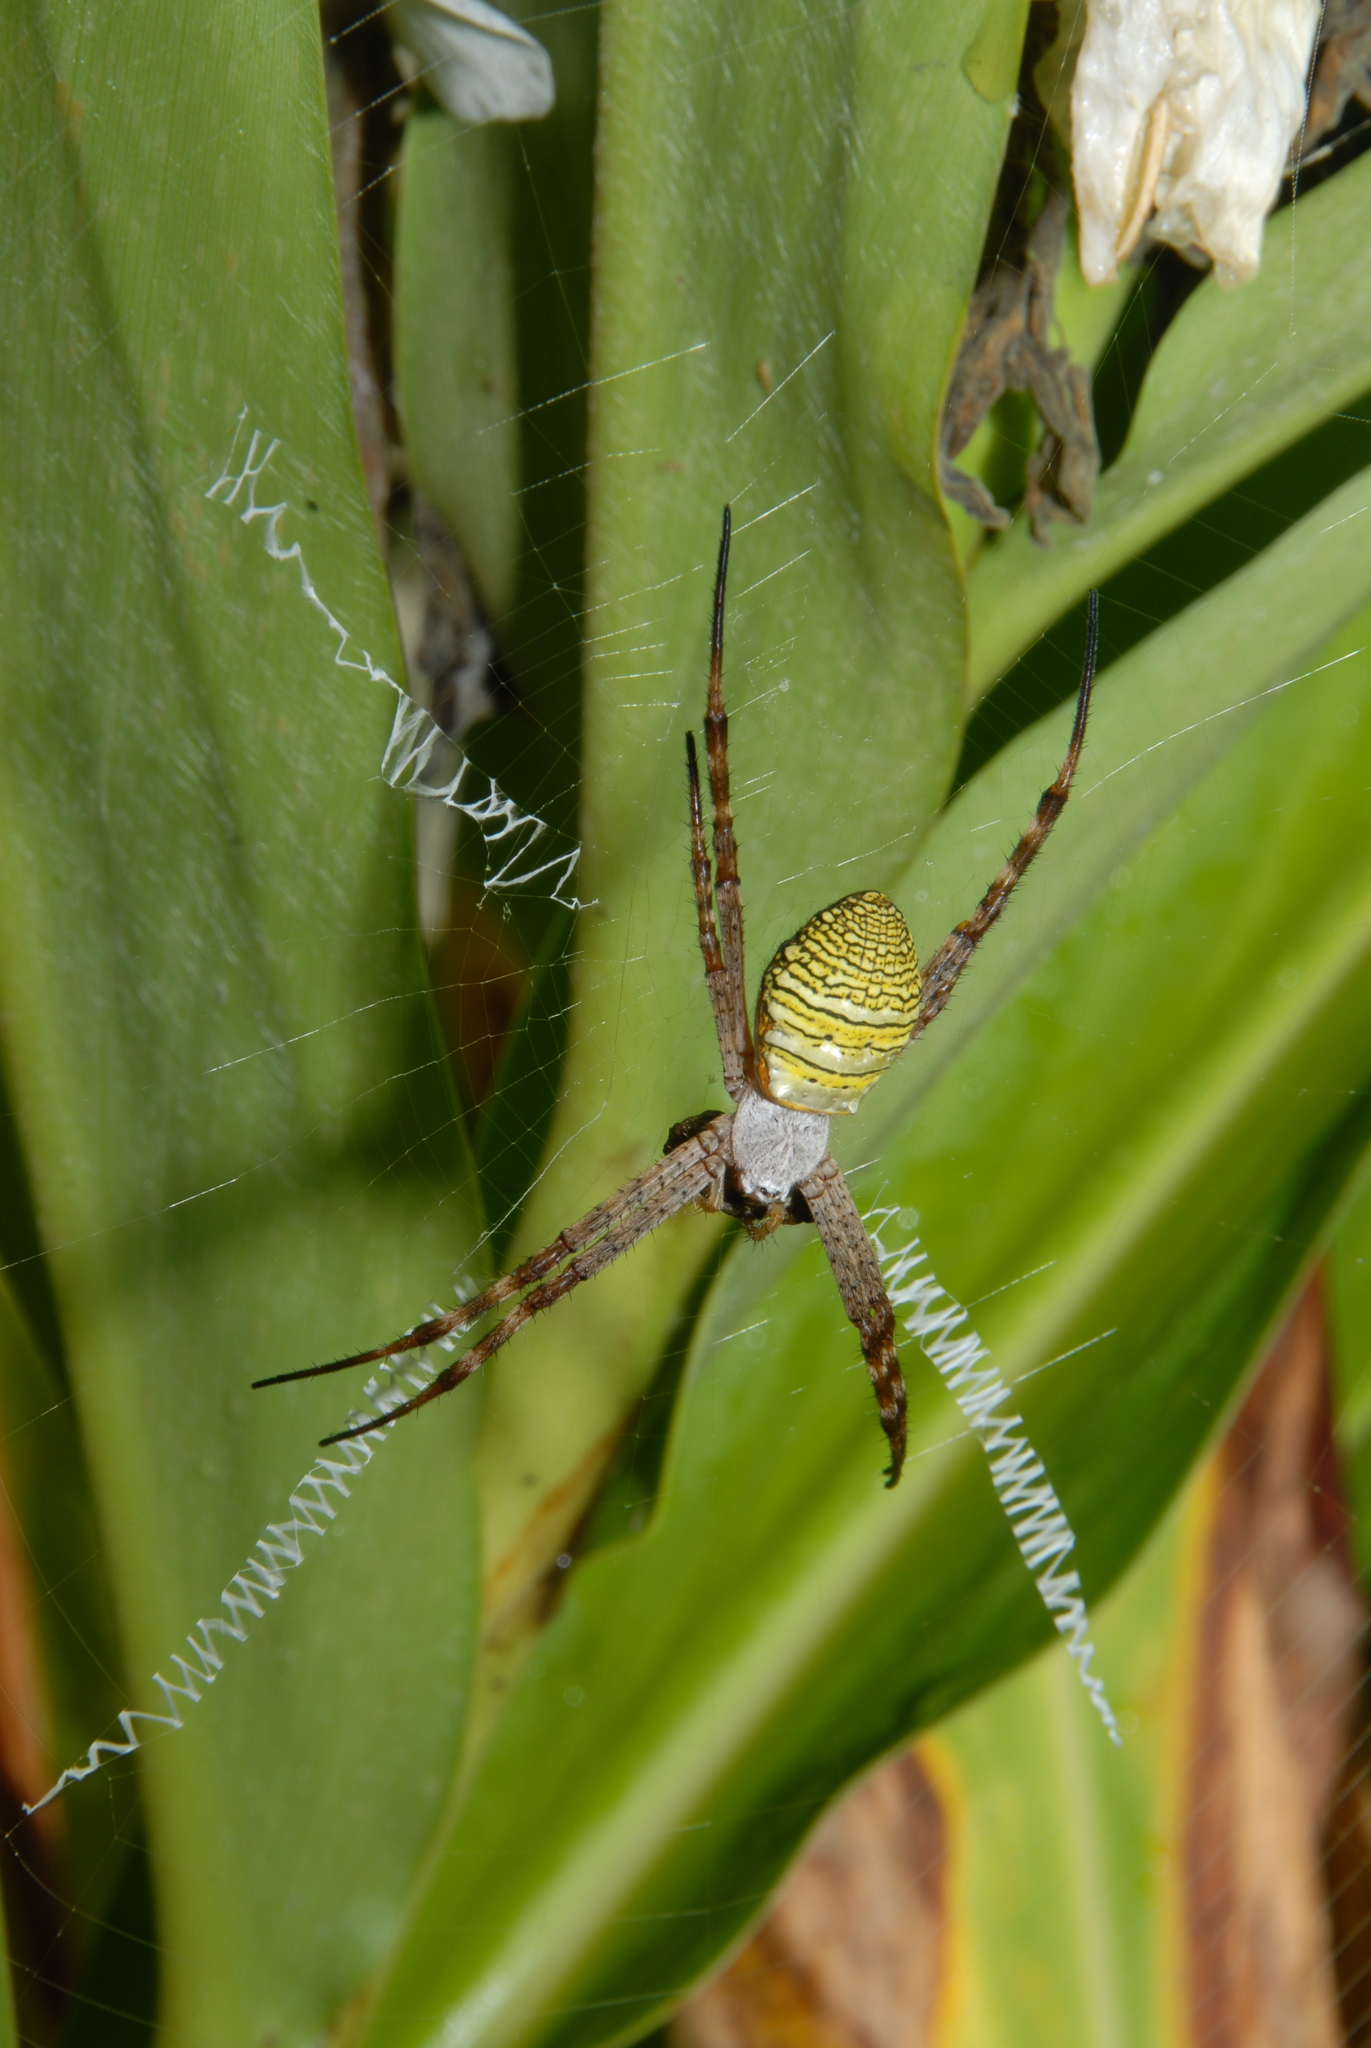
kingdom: Animalia
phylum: Arthropoda
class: Arachnida
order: Araneae
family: Araneidae
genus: Argiope
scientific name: Argiope aemula
